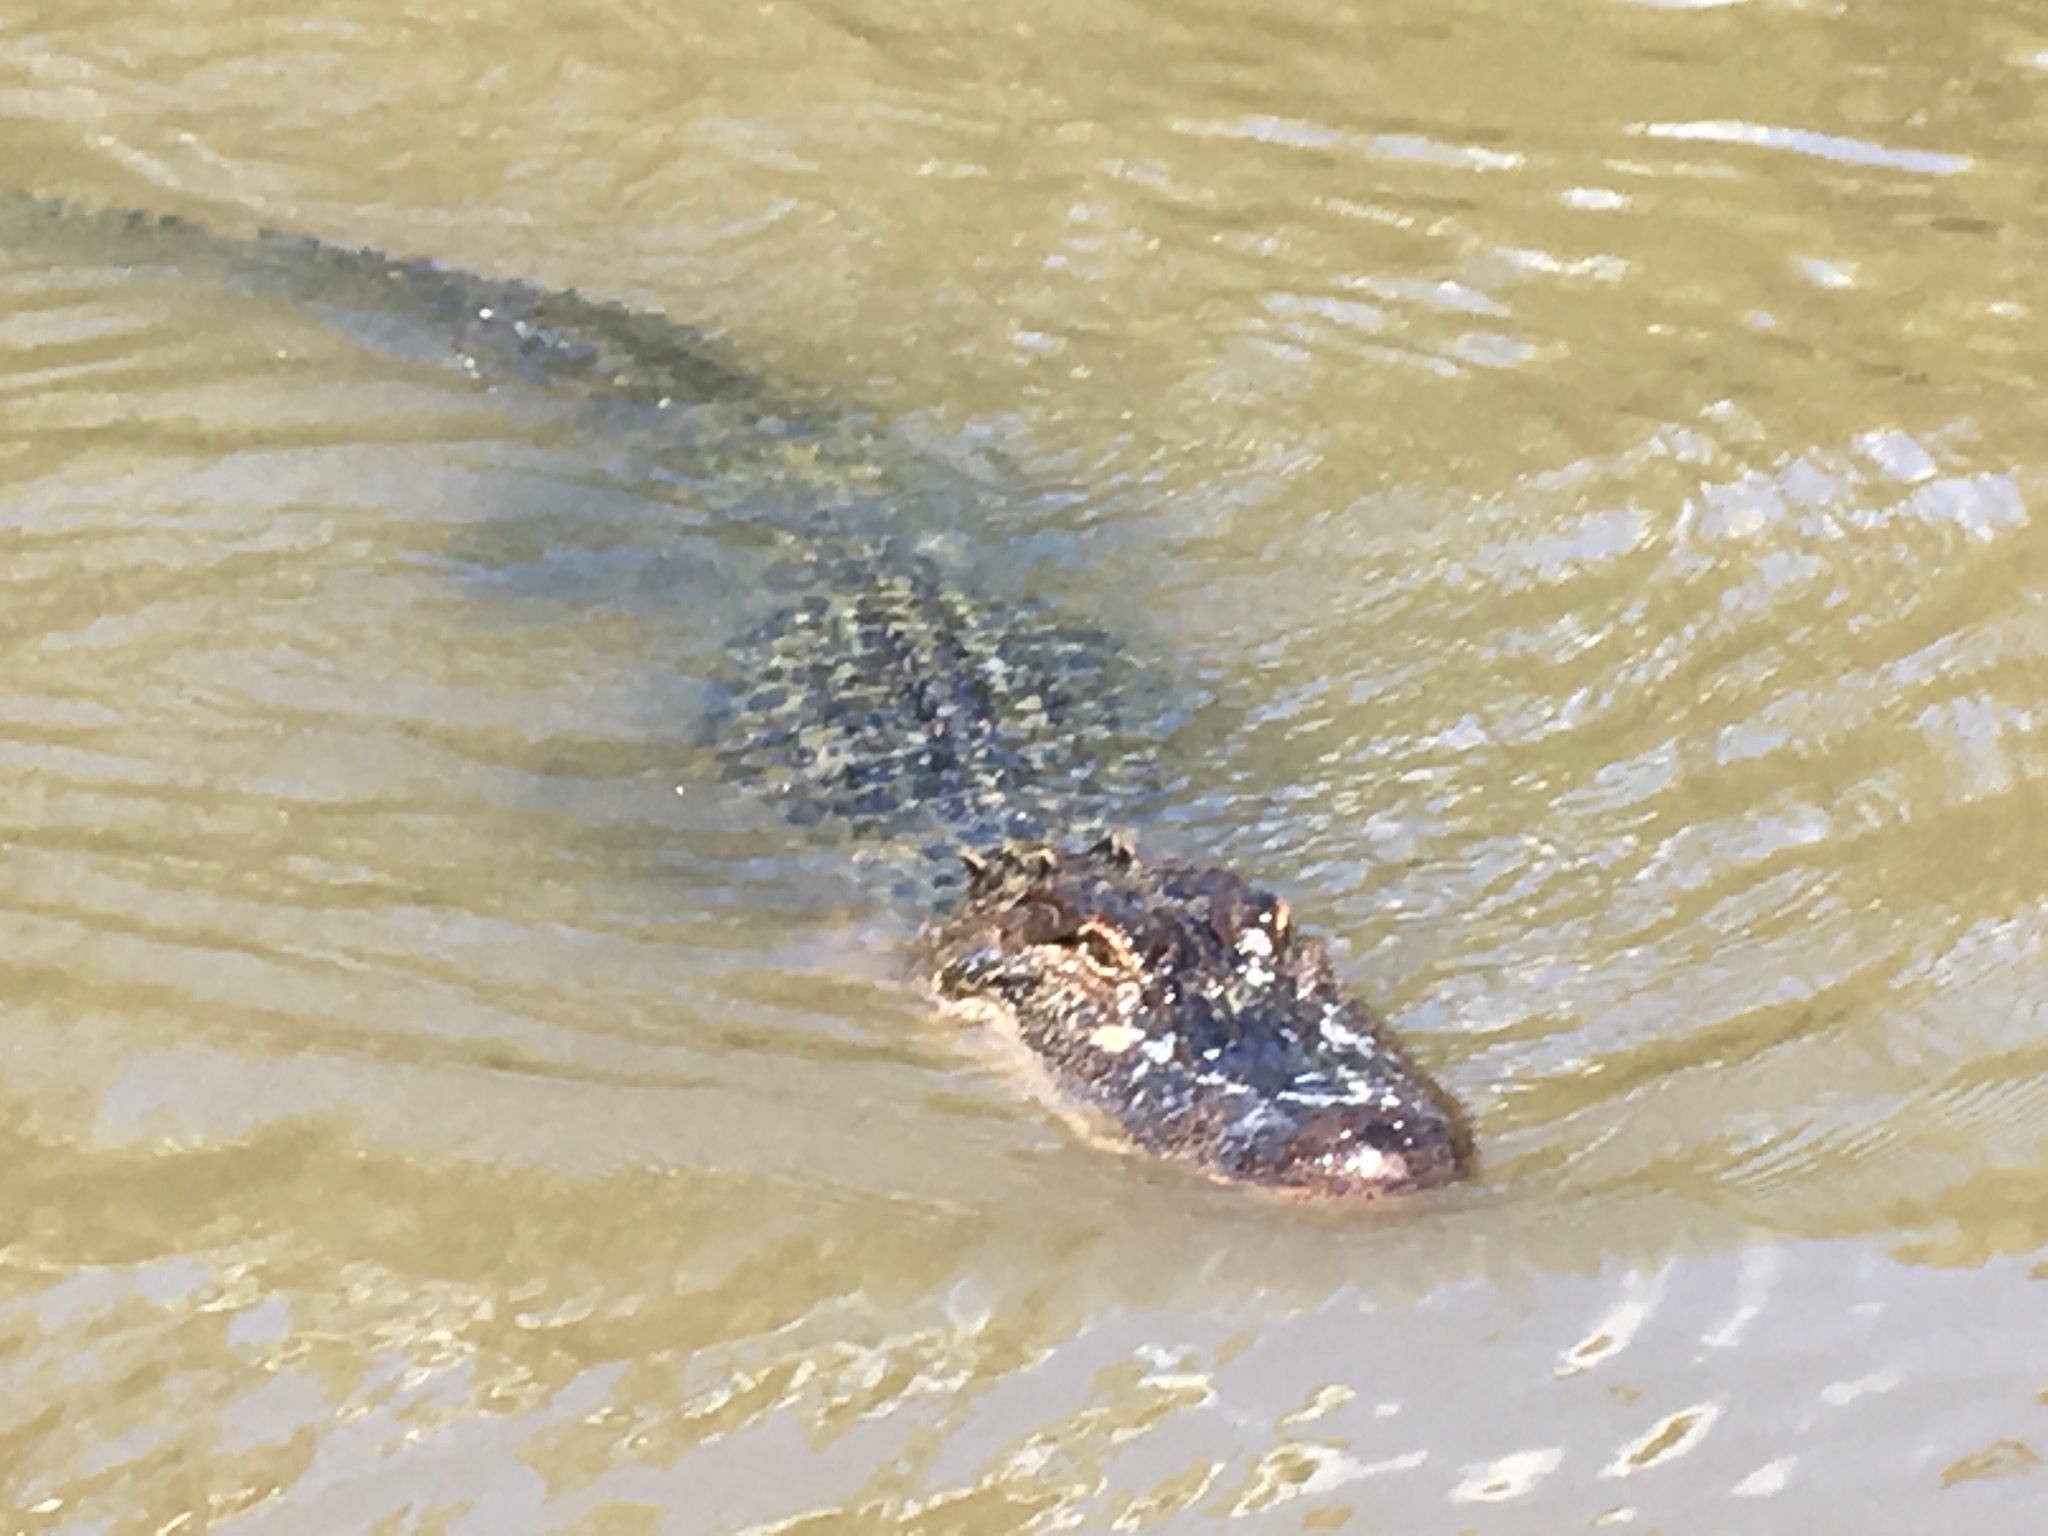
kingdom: Animalia
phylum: Chordata
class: Crocodylia
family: Alligatoridae
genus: Alligator
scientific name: Alligator mississippiensis
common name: American alligator
